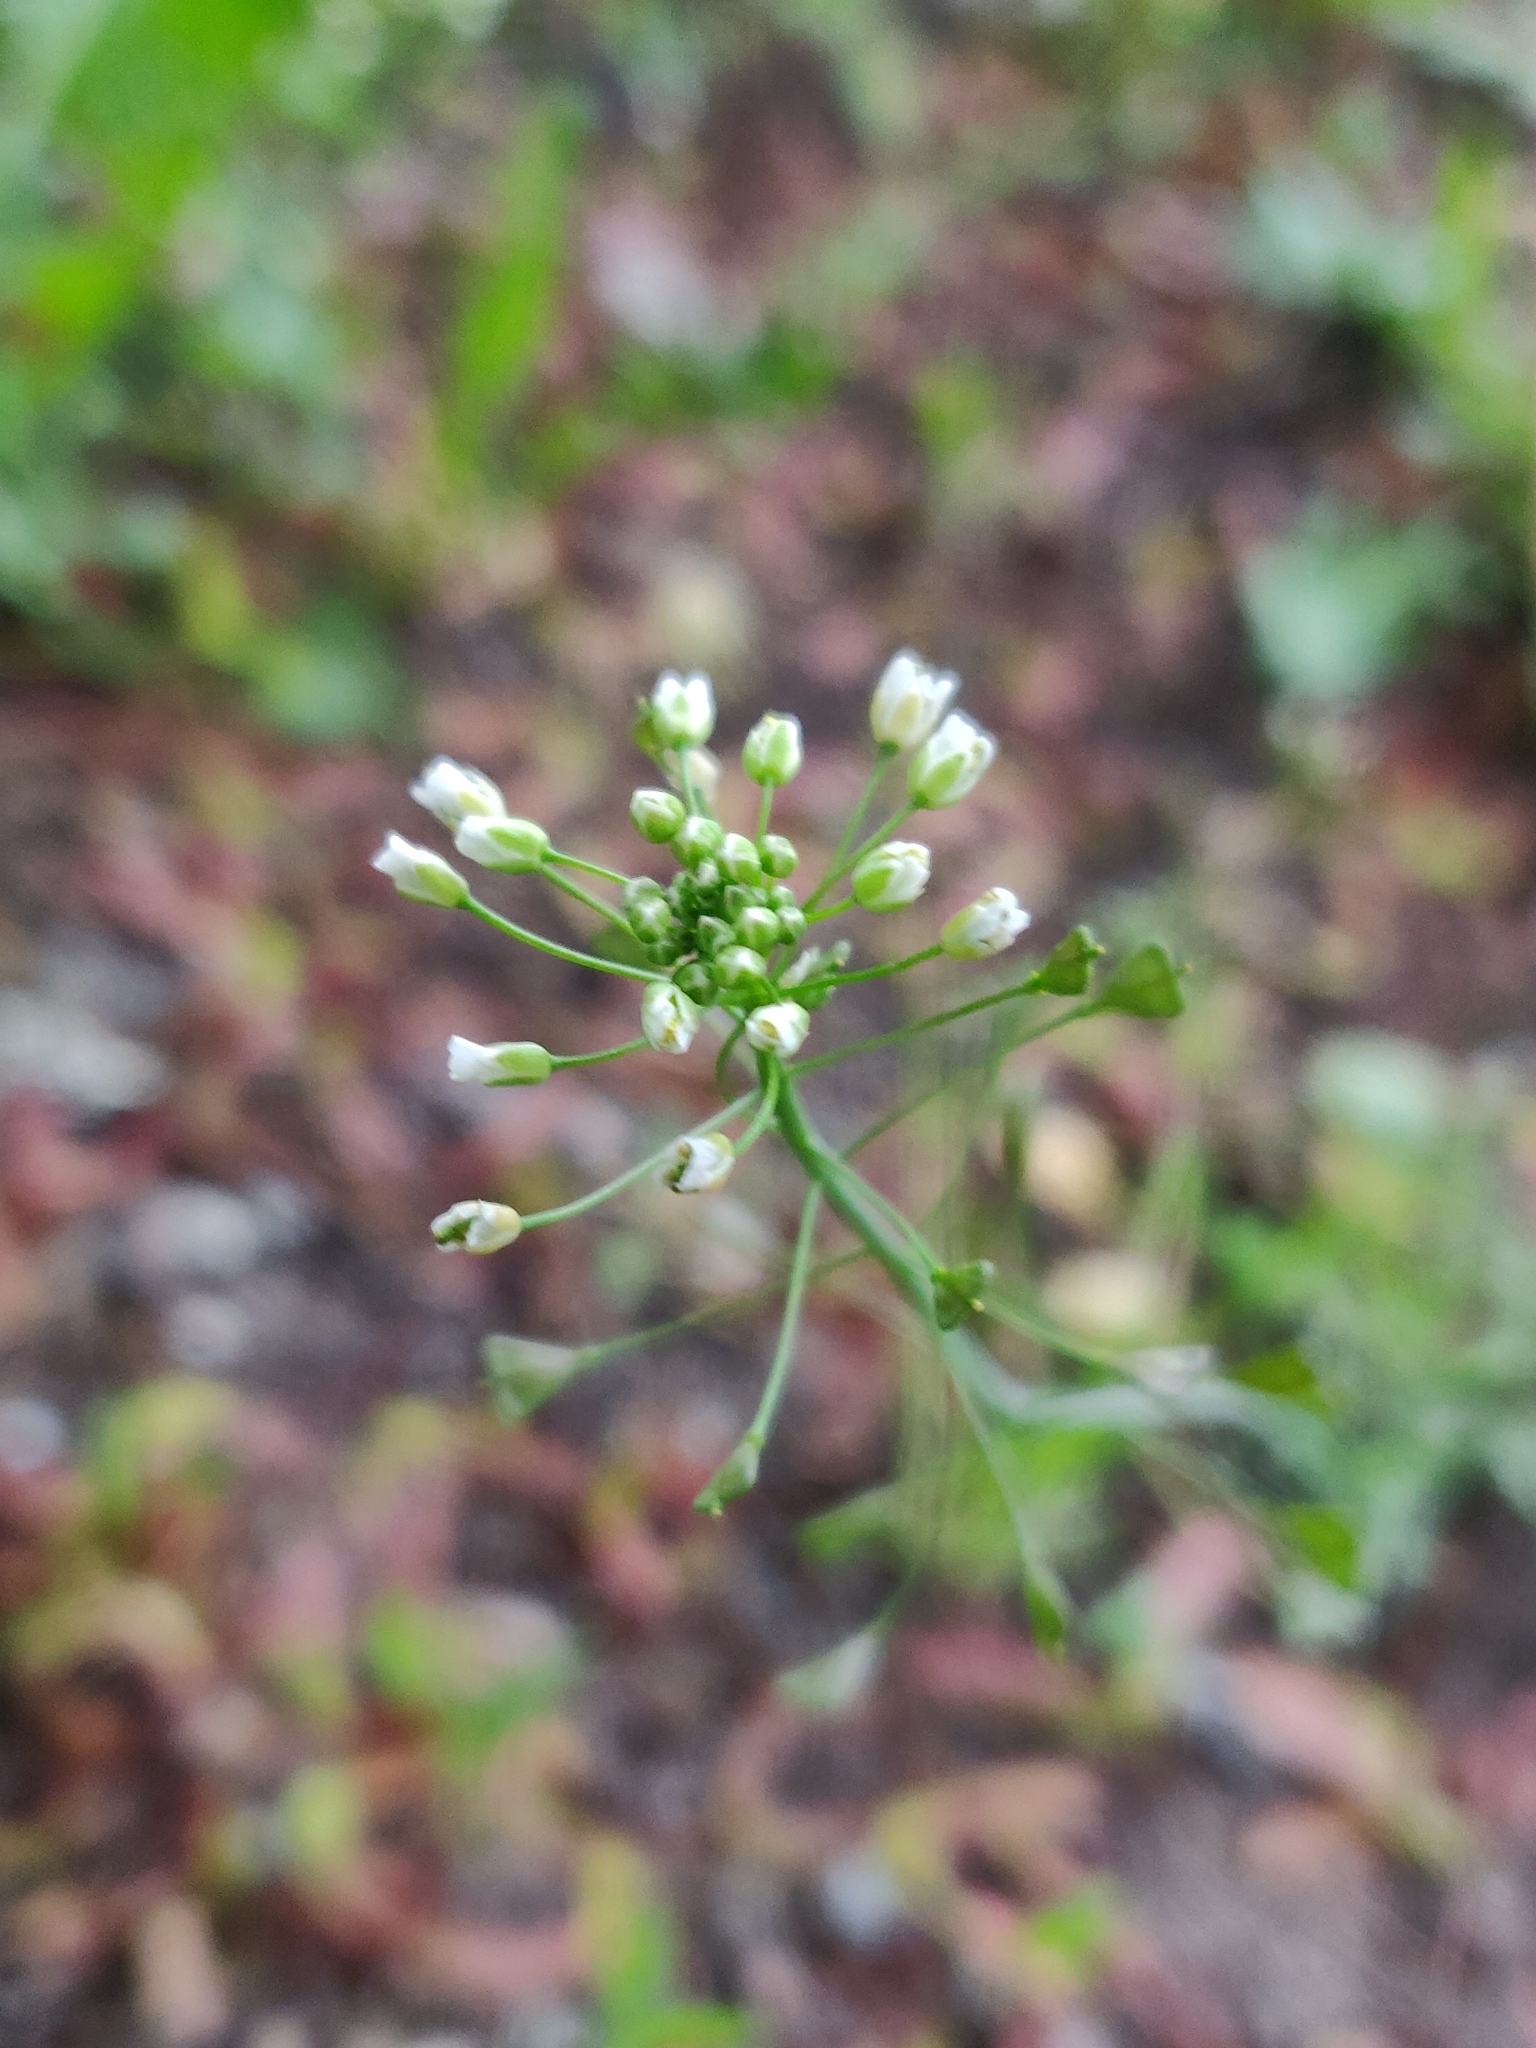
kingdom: Plantae
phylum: Tracheophyta
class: Magnoliopsida
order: Brassicales
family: Brassicaceae
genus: Capsella
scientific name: Capsella bursa-pastoris
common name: Shepherd's purse
